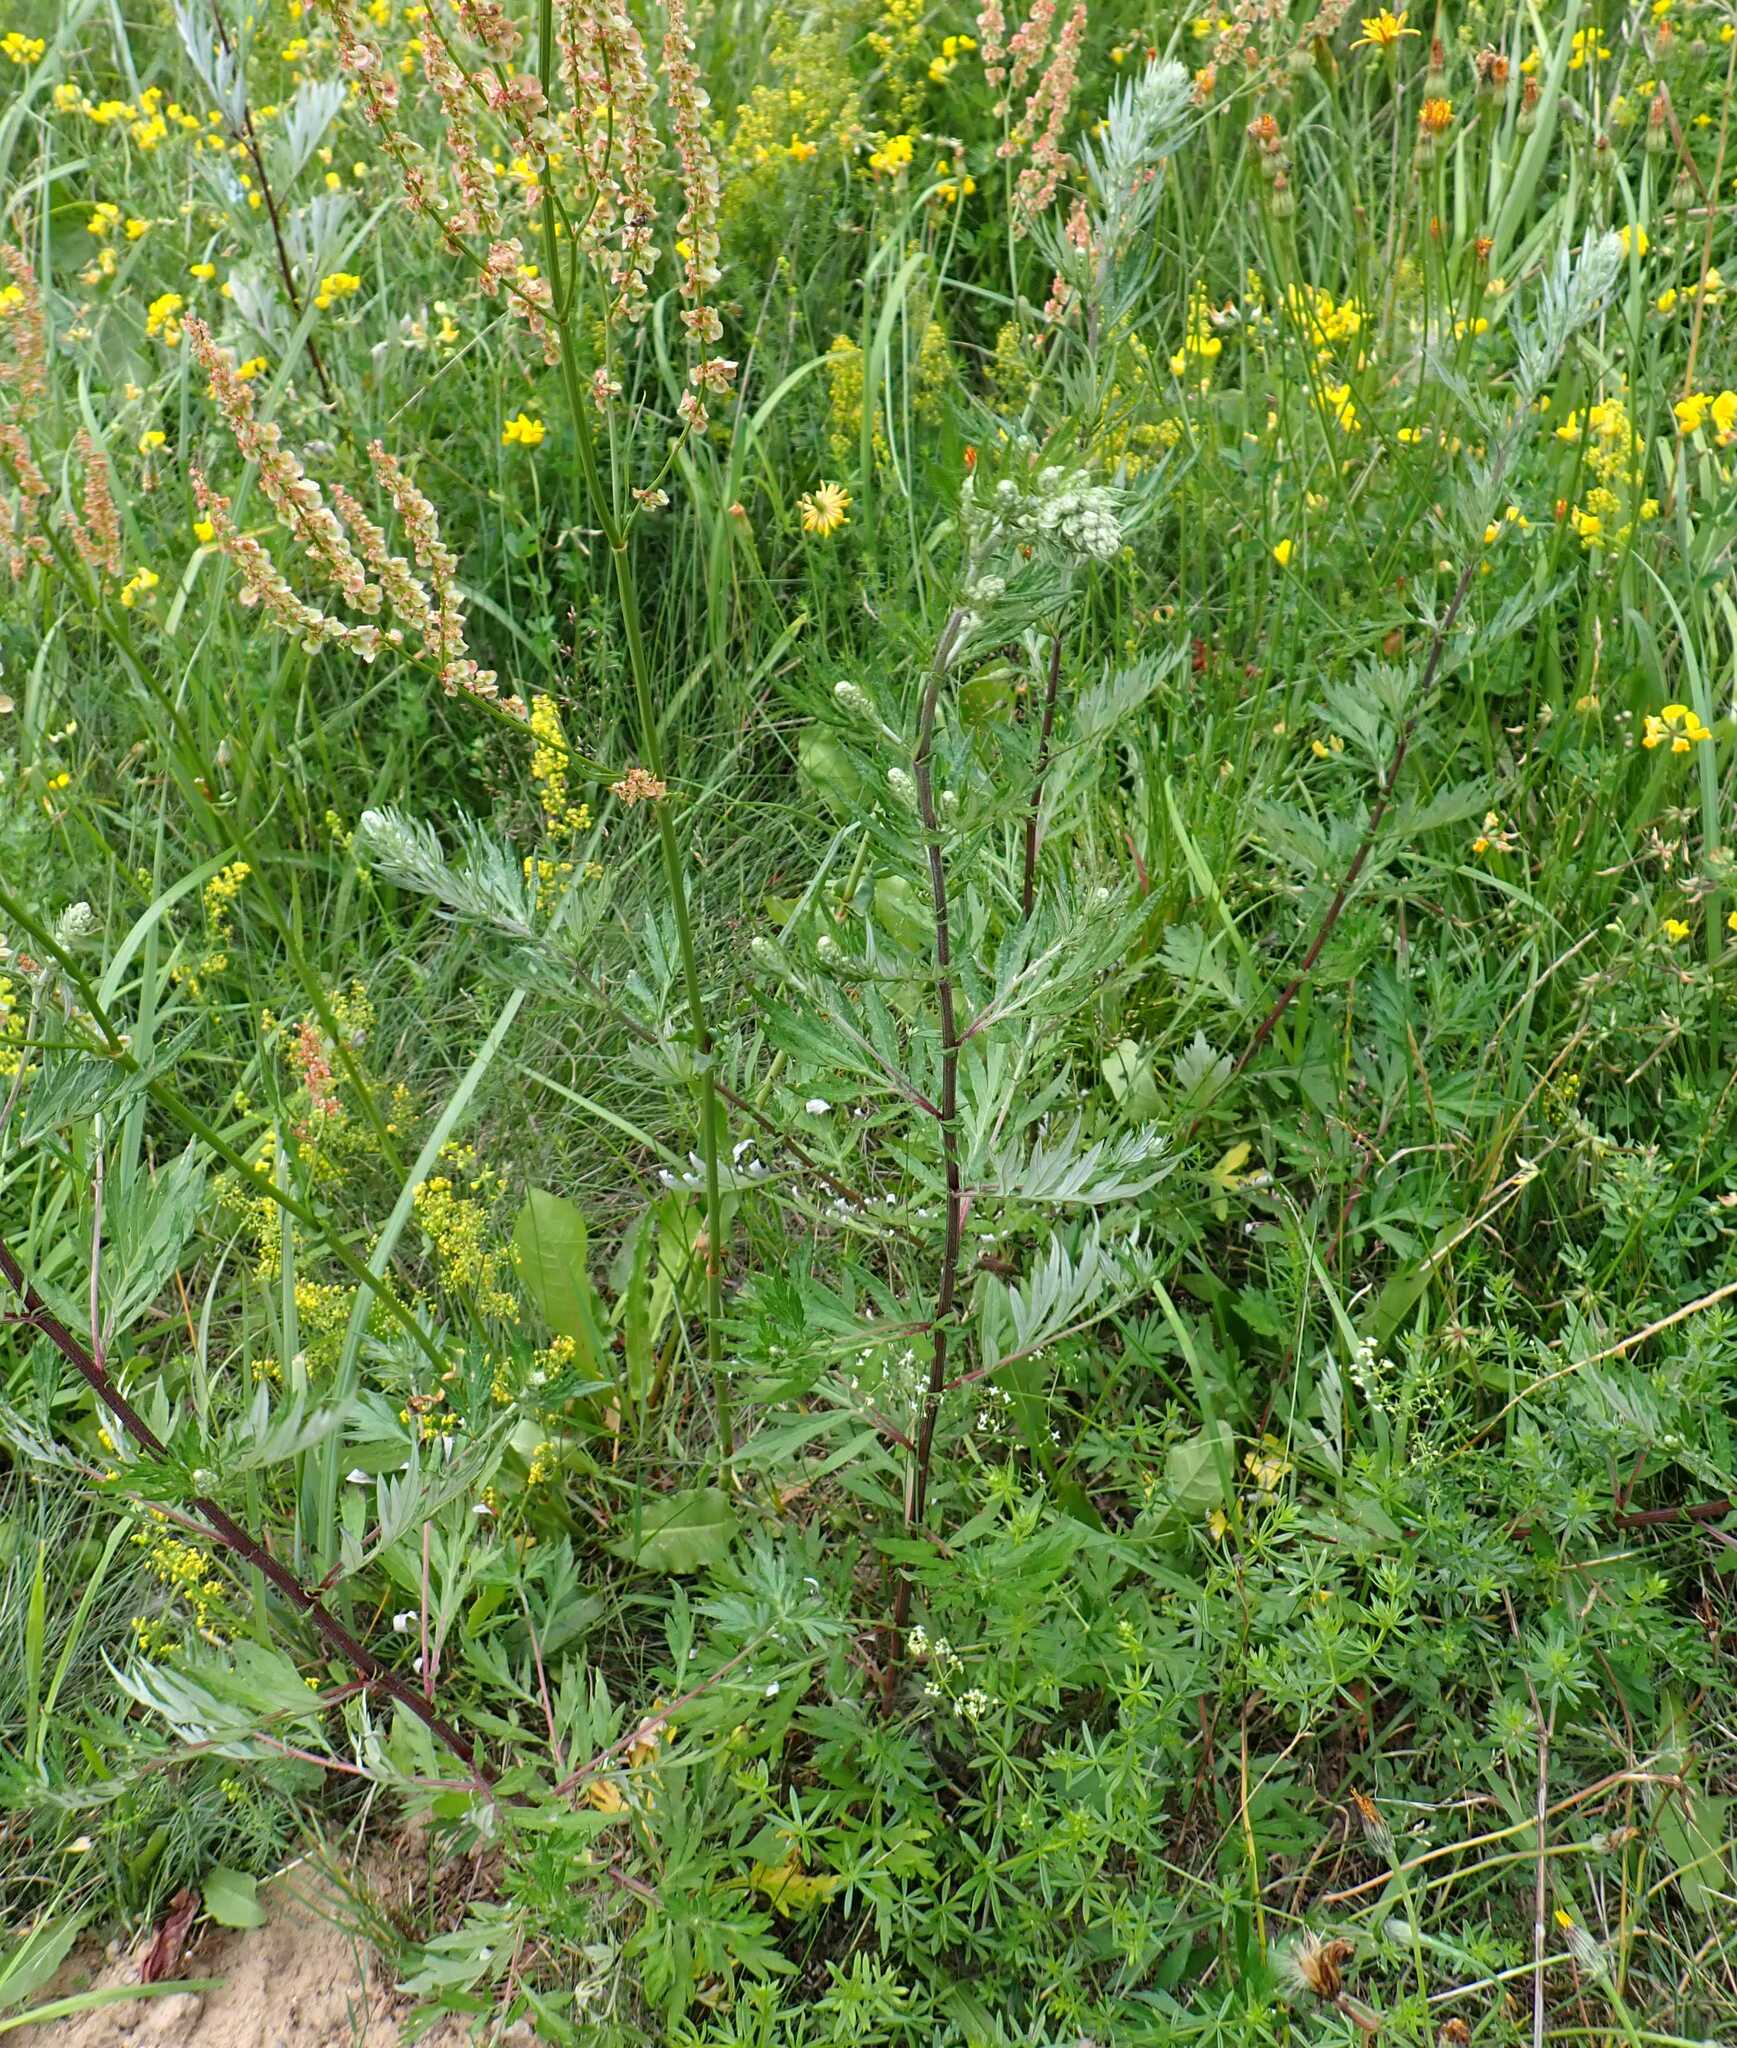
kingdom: Plantae
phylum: Tracheophyta
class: Magnoliopsida
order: Asterales
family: Asteraceae
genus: Artemisia
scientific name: Artemisia vulgaris
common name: Mugwort
